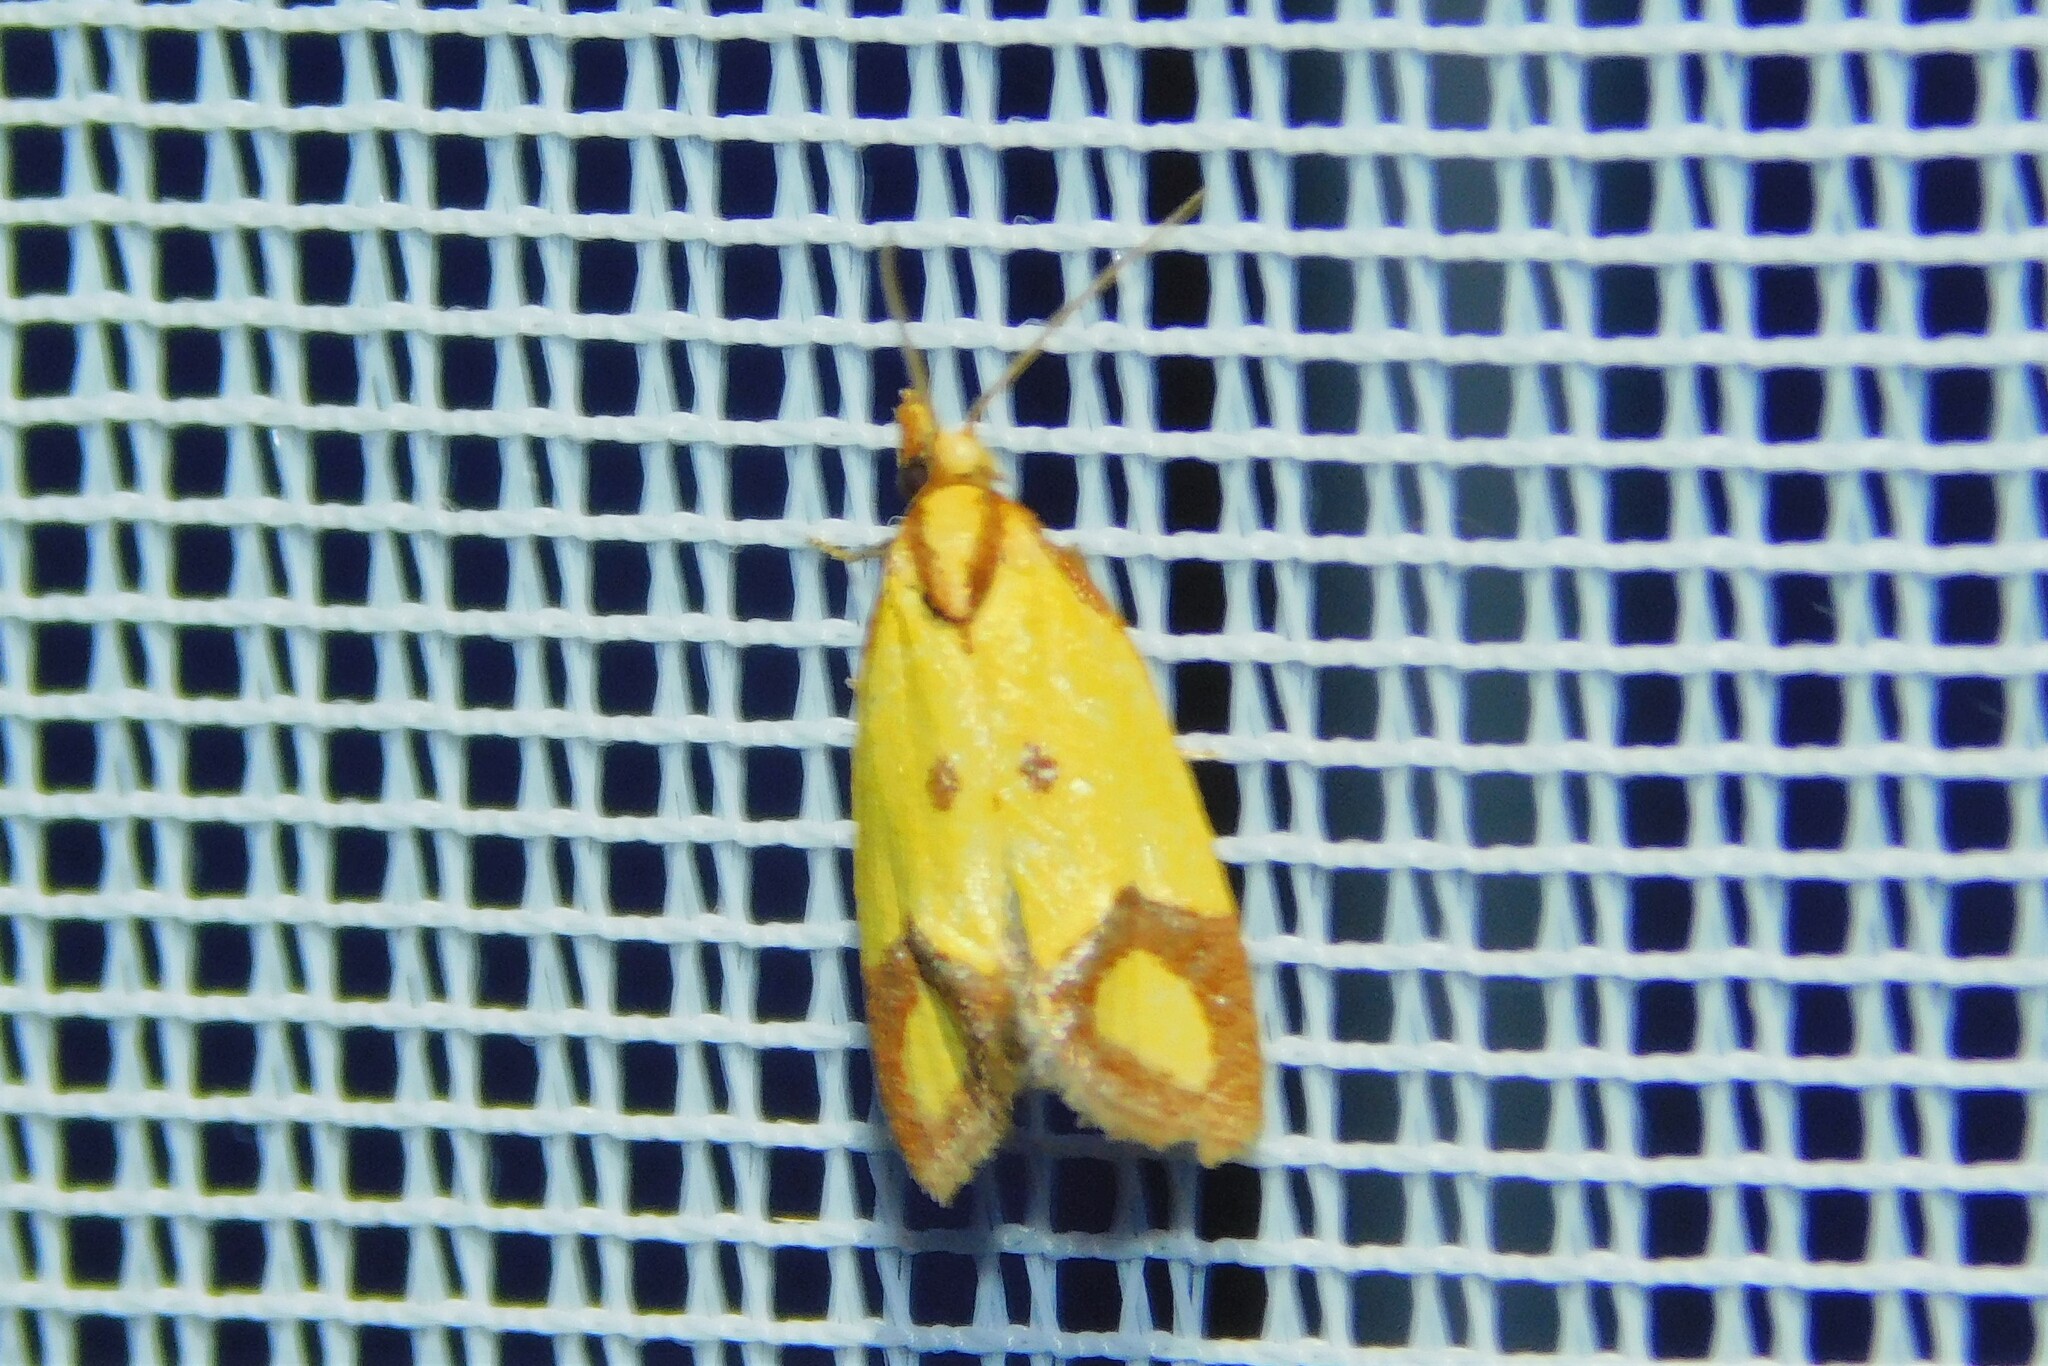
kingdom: Animalia
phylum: Arthropoda
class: Insecta
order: Lepidoptera
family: Tortricidae
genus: Agapeta
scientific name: Agapeta zoegana
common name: Sulfur knapweed root moth
